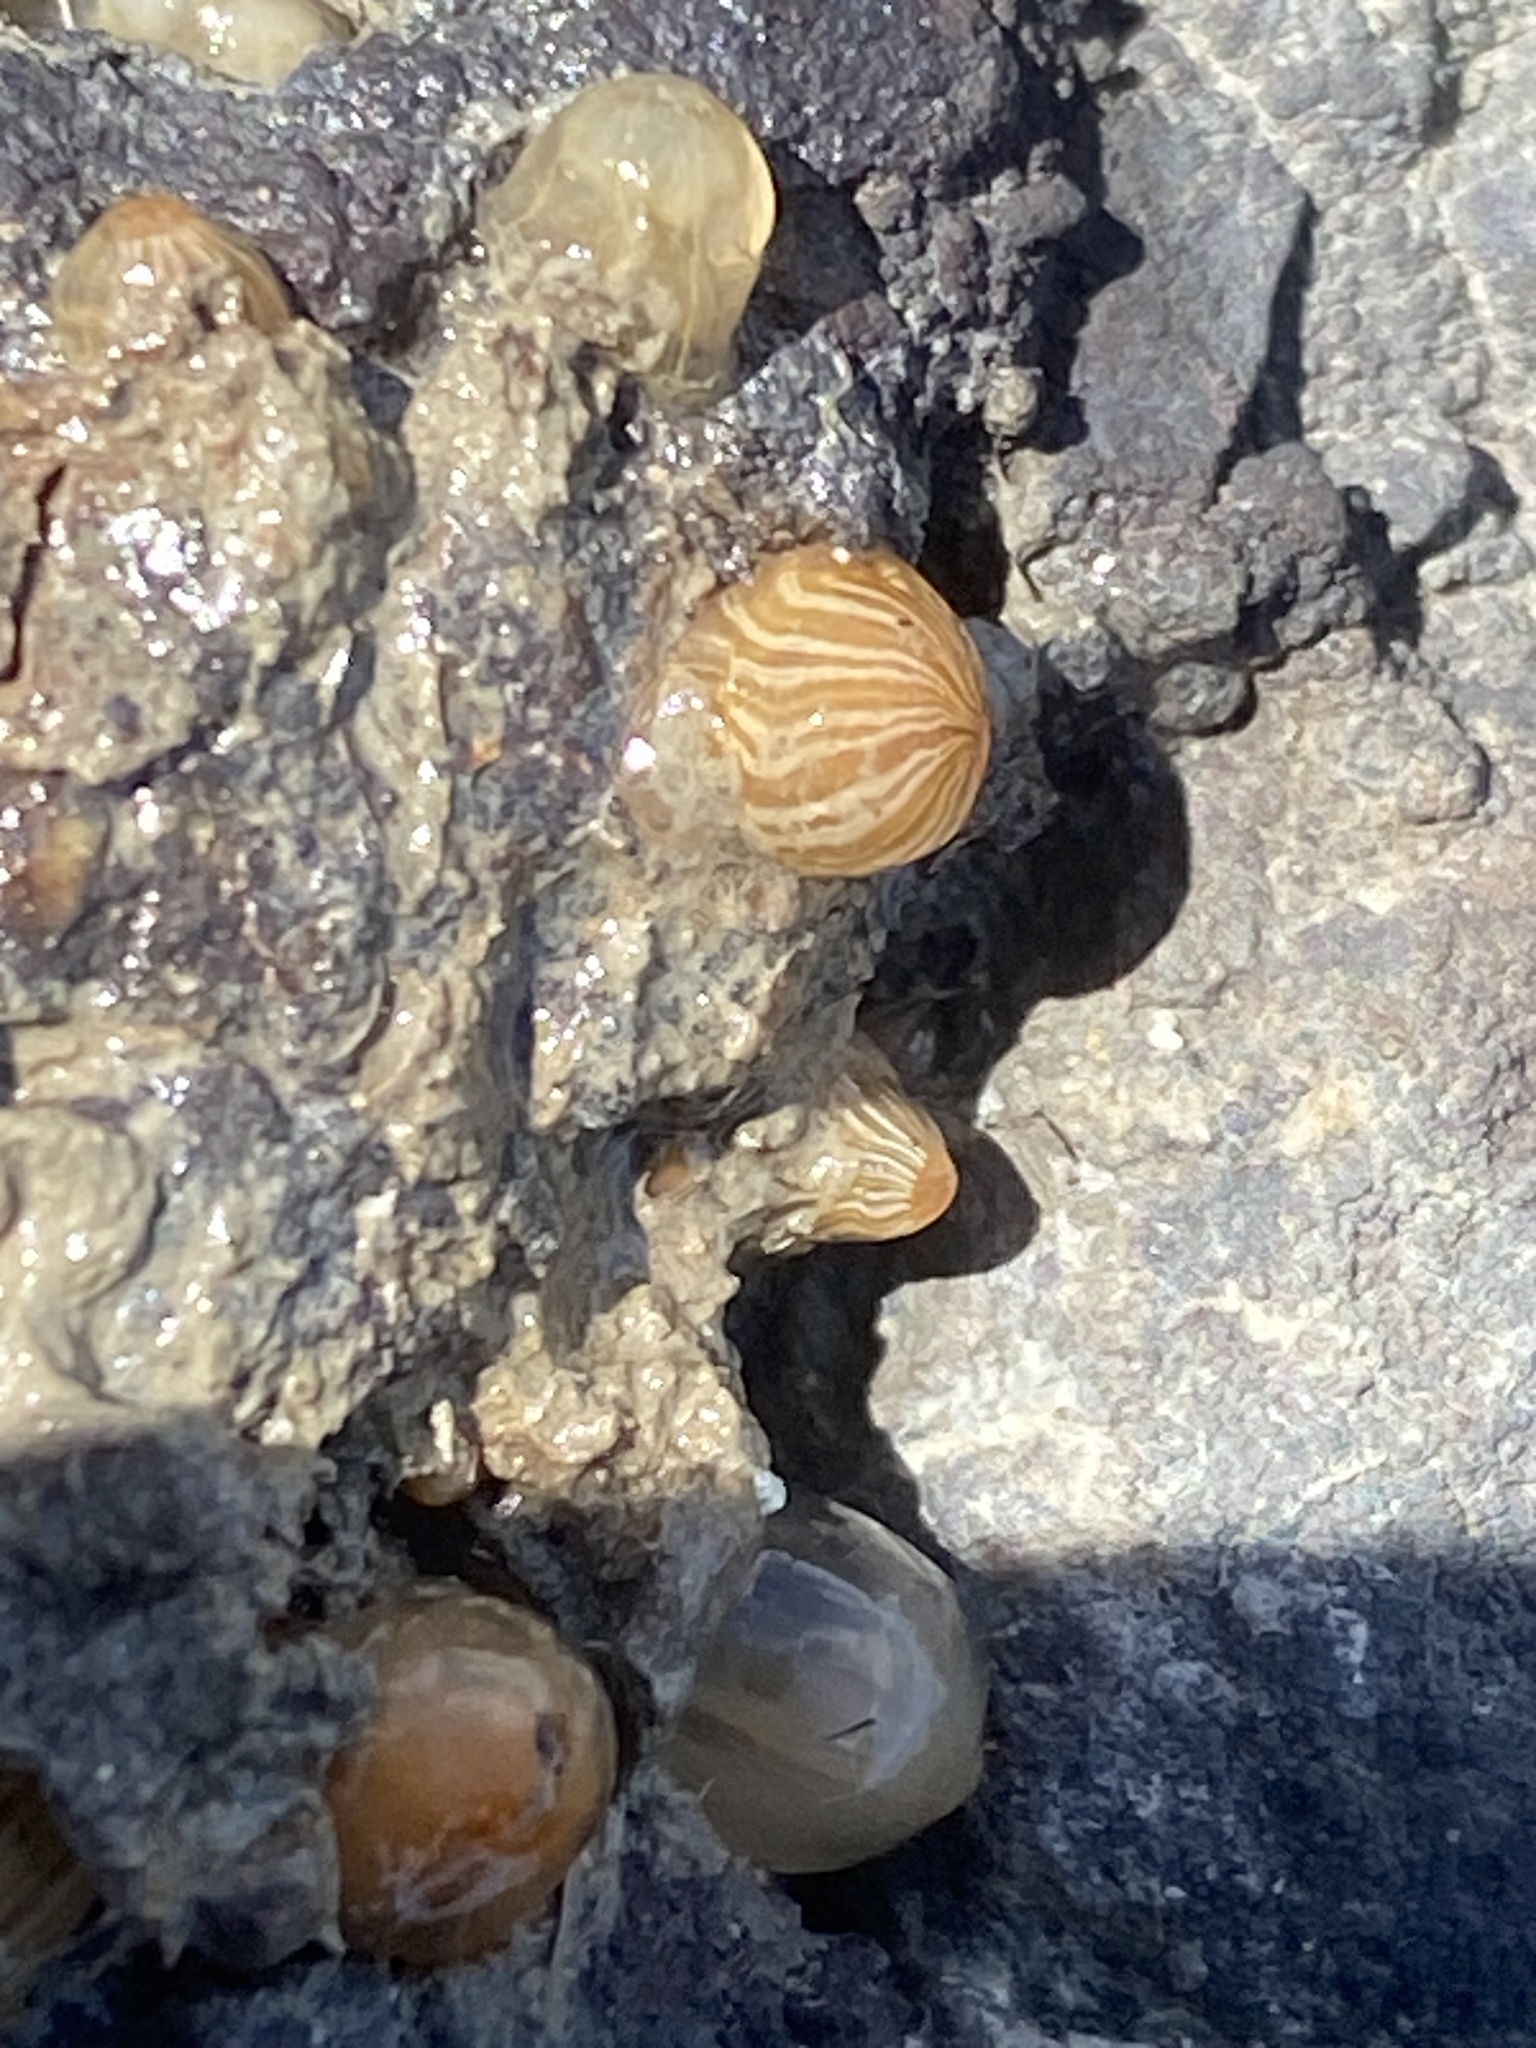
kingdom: Animalia
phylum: Cnidaria
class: Anthozoa
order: Actiniaria
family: Diadumenidae
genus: Diadumene
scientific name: Diadumene franciscana
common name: San francisco anemone
